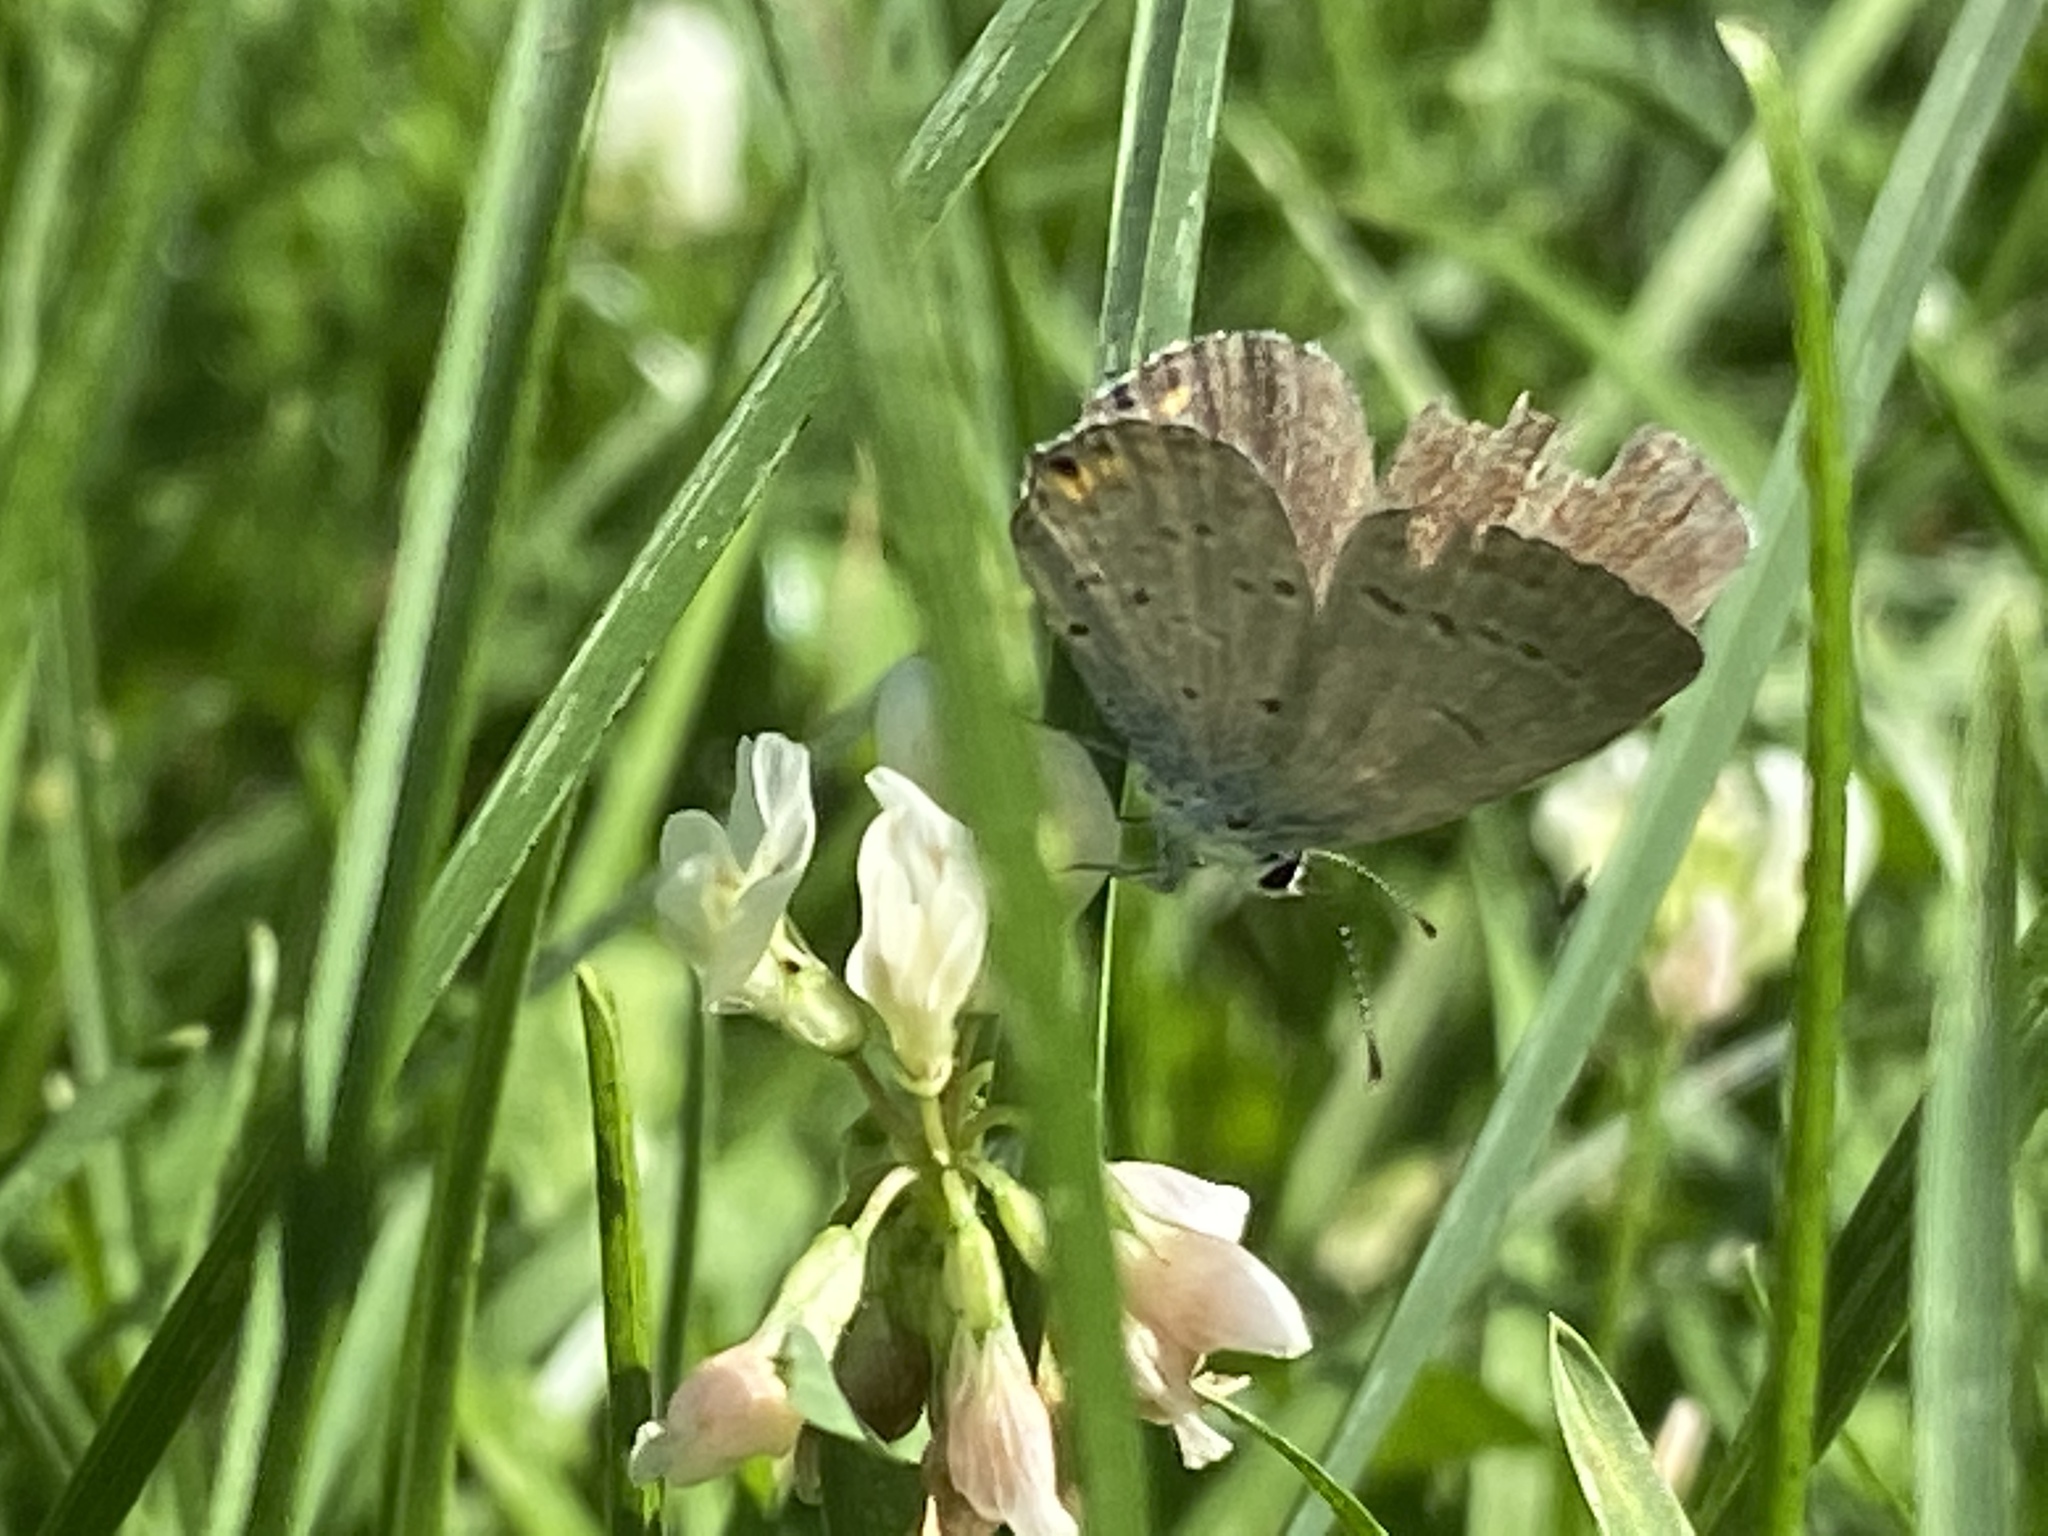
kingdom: Animalia
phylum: Arthropoda
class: Insecta
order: Lepidoptera
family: Lycaenidae
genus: Elkalyce
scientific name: Elkalyce comyntas
